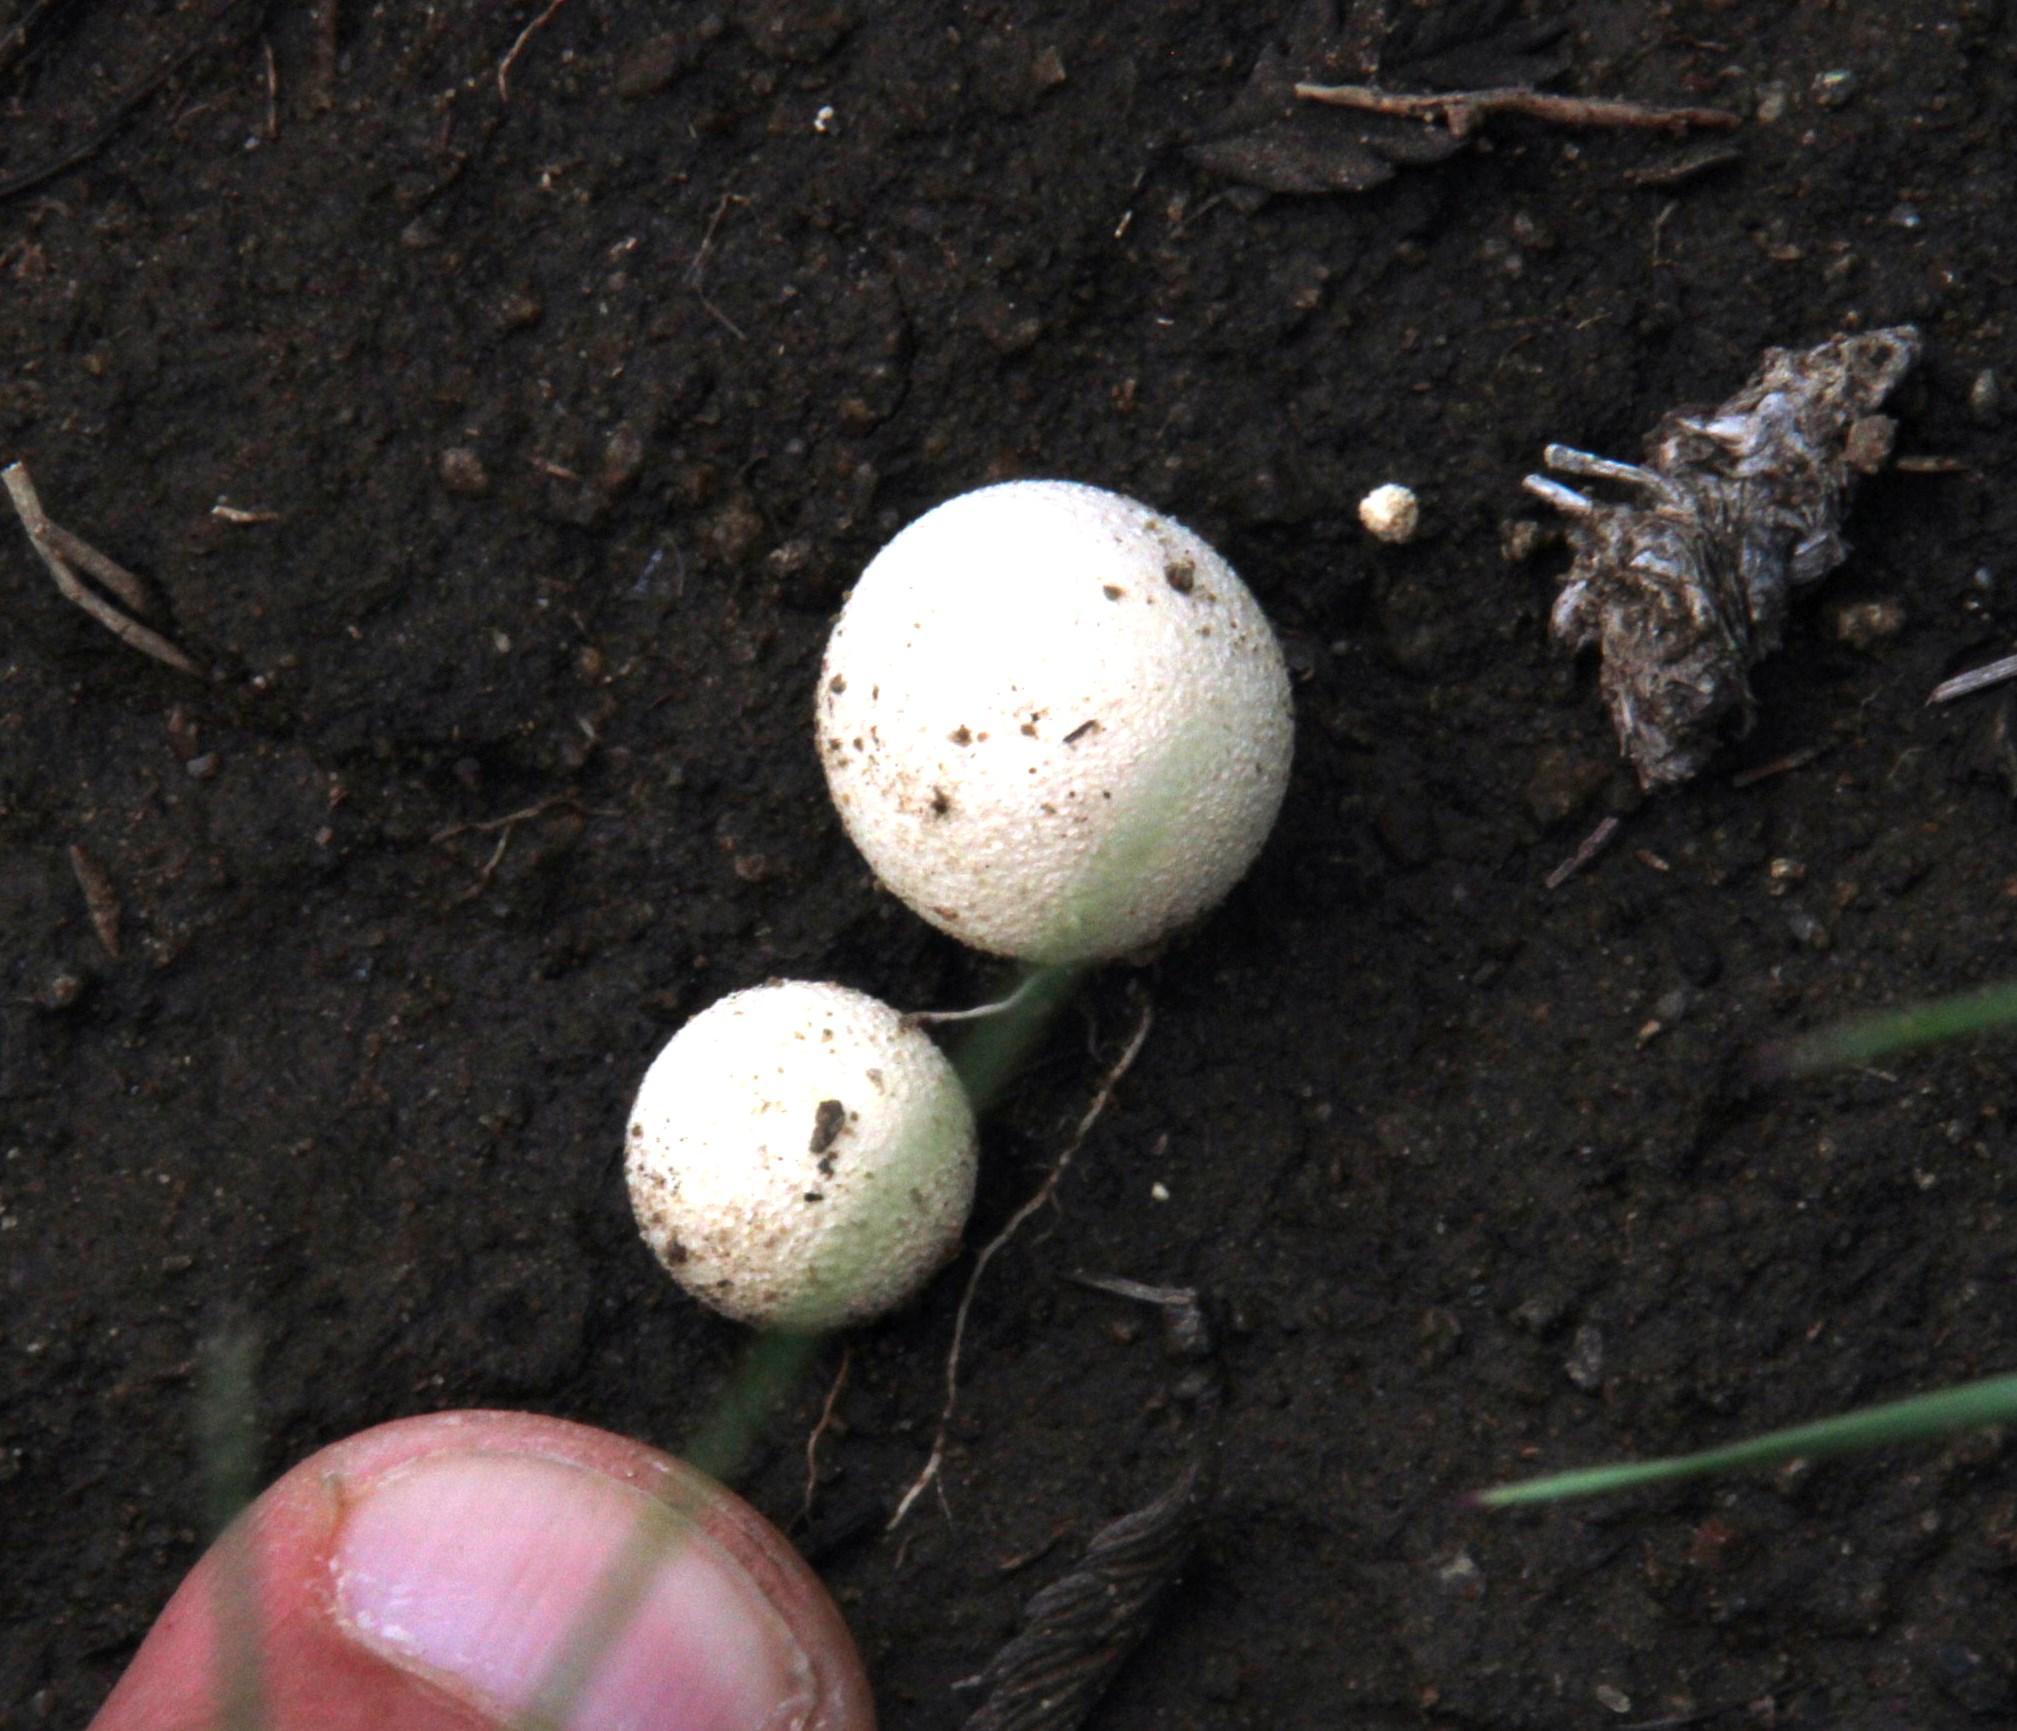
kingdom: Fungi
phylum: Basidiomycota
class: Agaricomycetes
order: Agaricales
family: Lycoperdaceae
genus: Lycoperdon
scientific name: Lycoperdon pratense
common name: Meadow puffball
